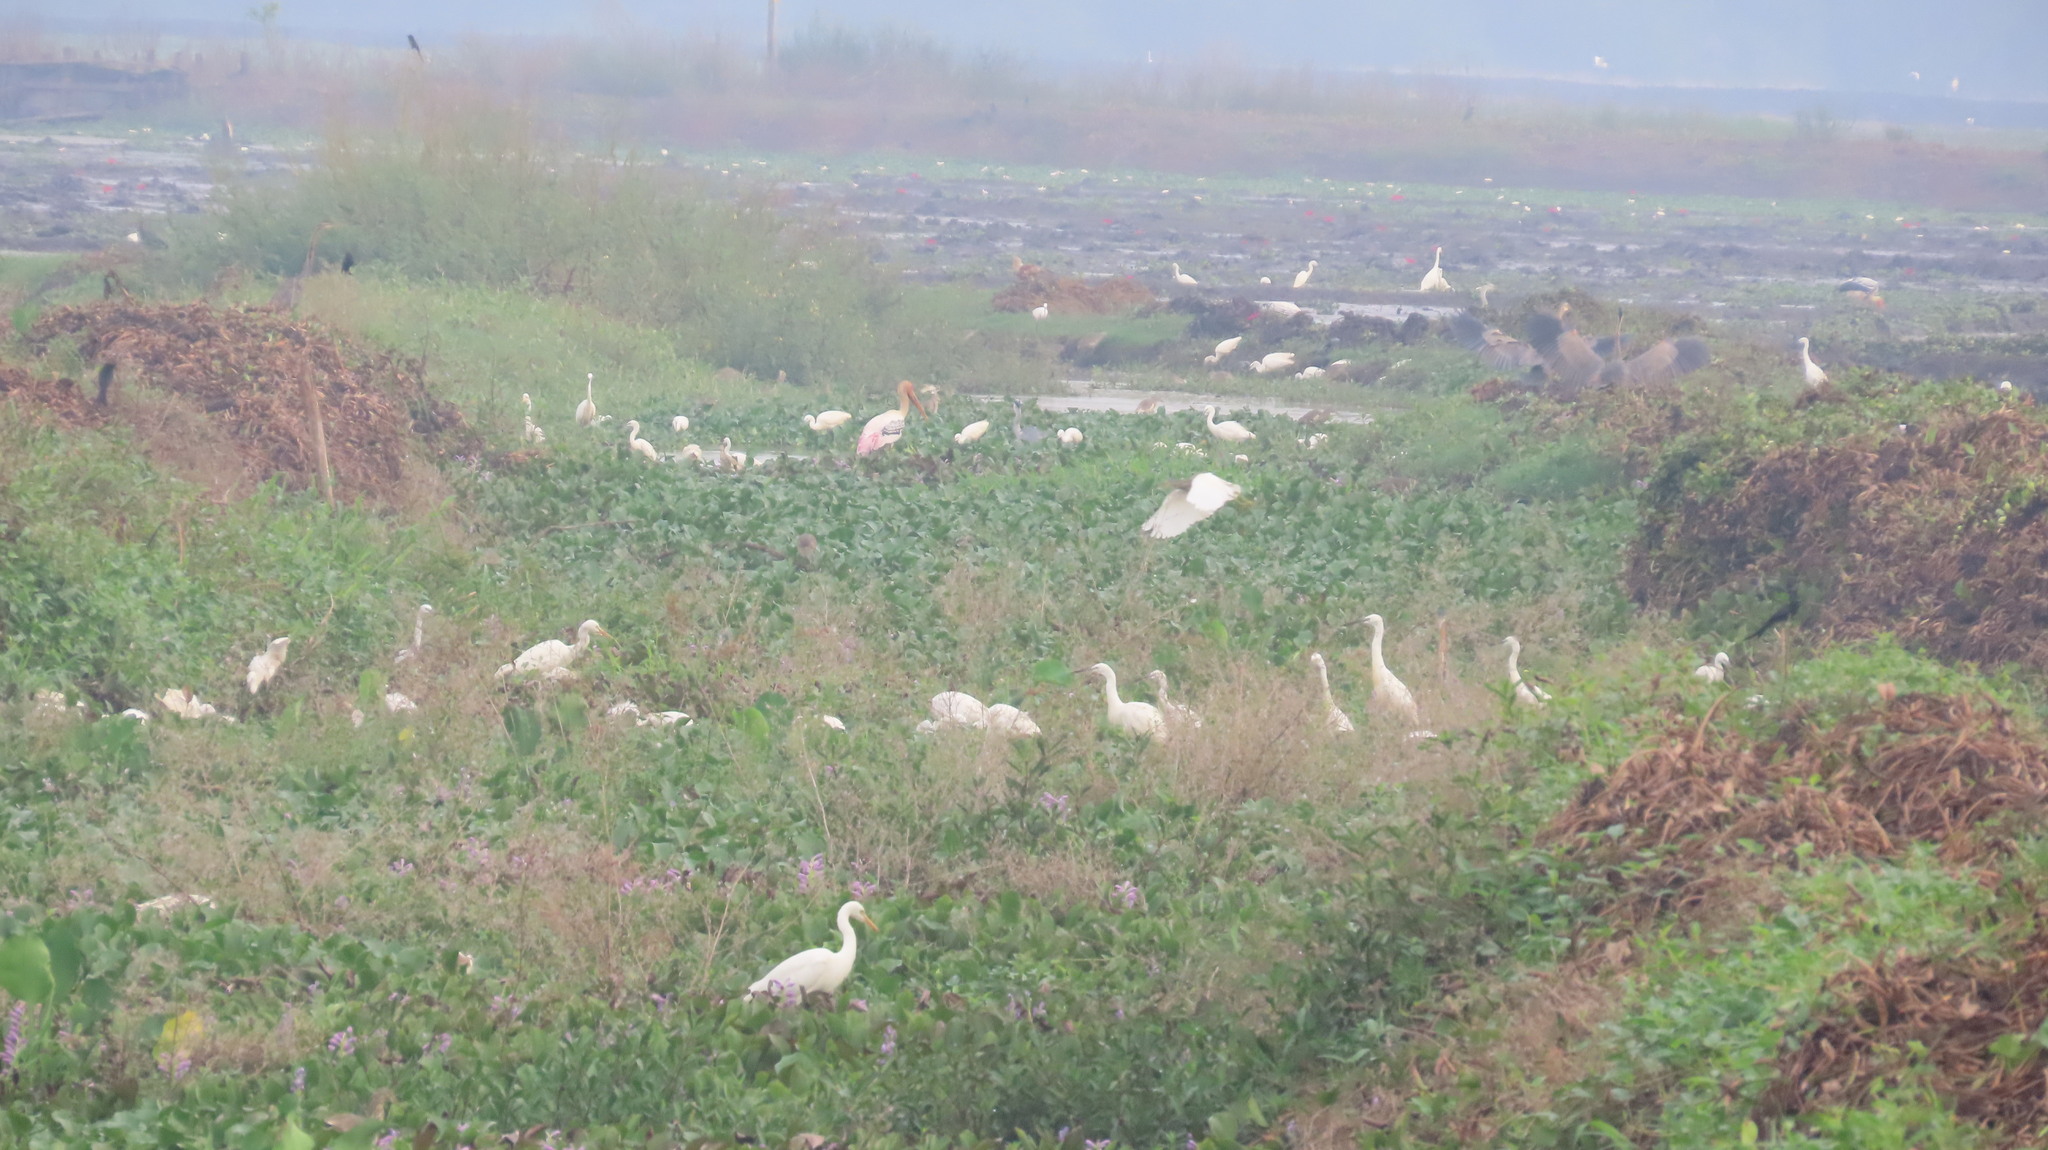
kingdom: Animalia
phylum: Chordata
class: Aves
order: Pelecaniformes
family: Ardeidae
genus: Egretta
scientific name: Egretta intermedia
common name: Intermediate egret
